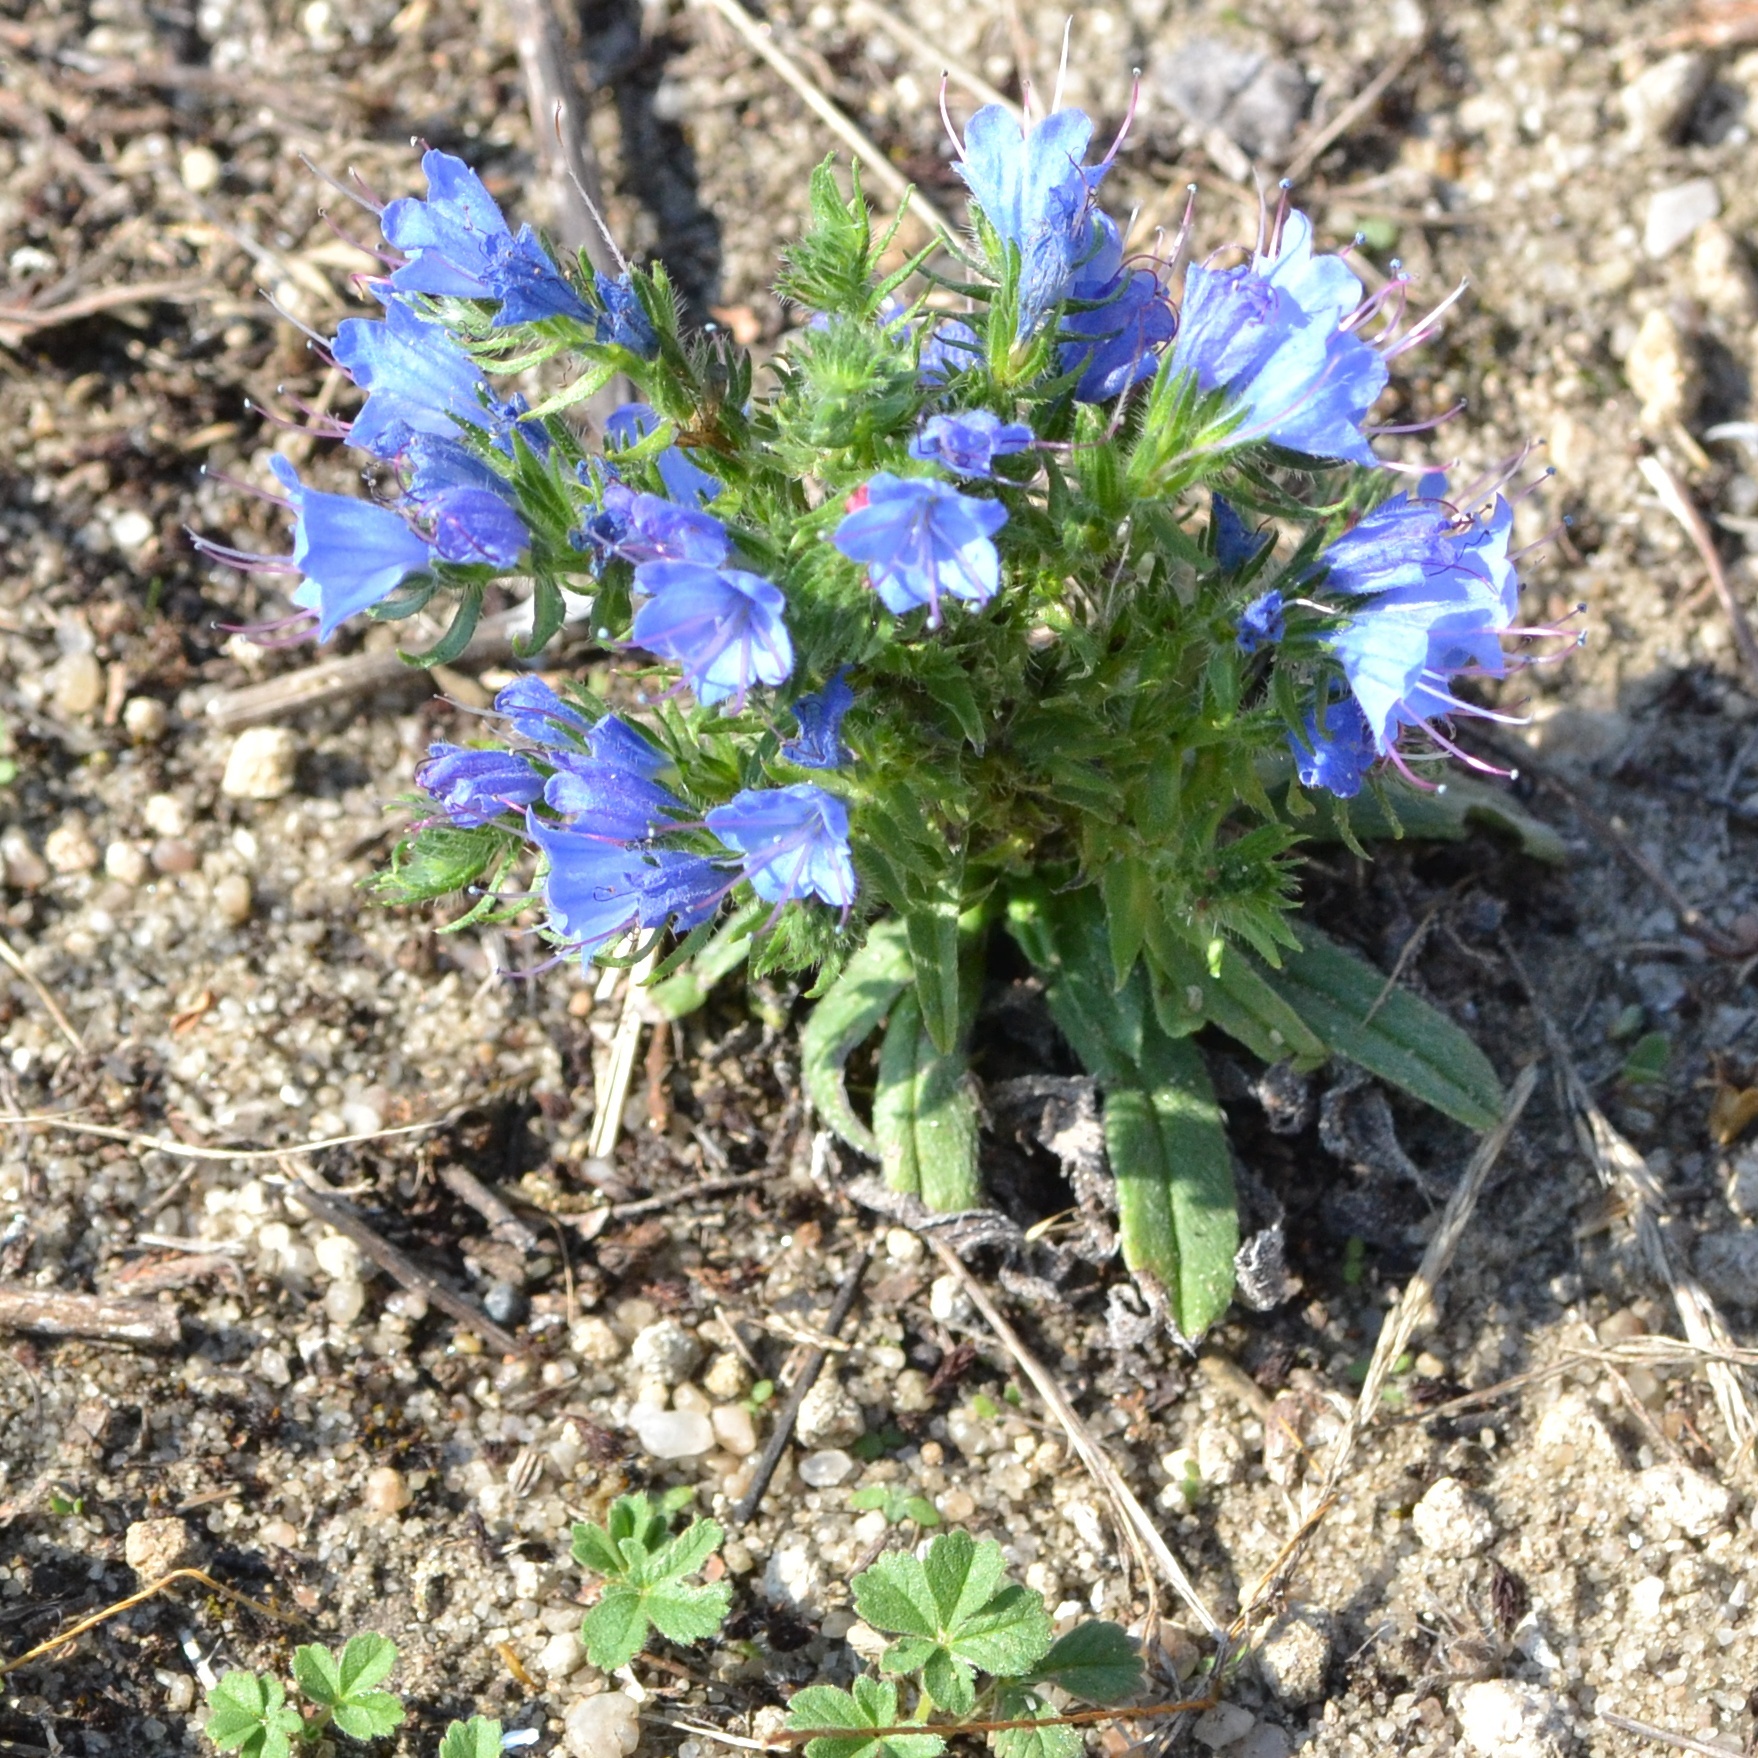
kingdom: Plantae
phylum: Tracheophyta
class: Magnoliopsida
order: Boraginales
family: Boraginaceae
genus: Echium
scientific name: Echium vulgare
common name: Common viper's bugloss
